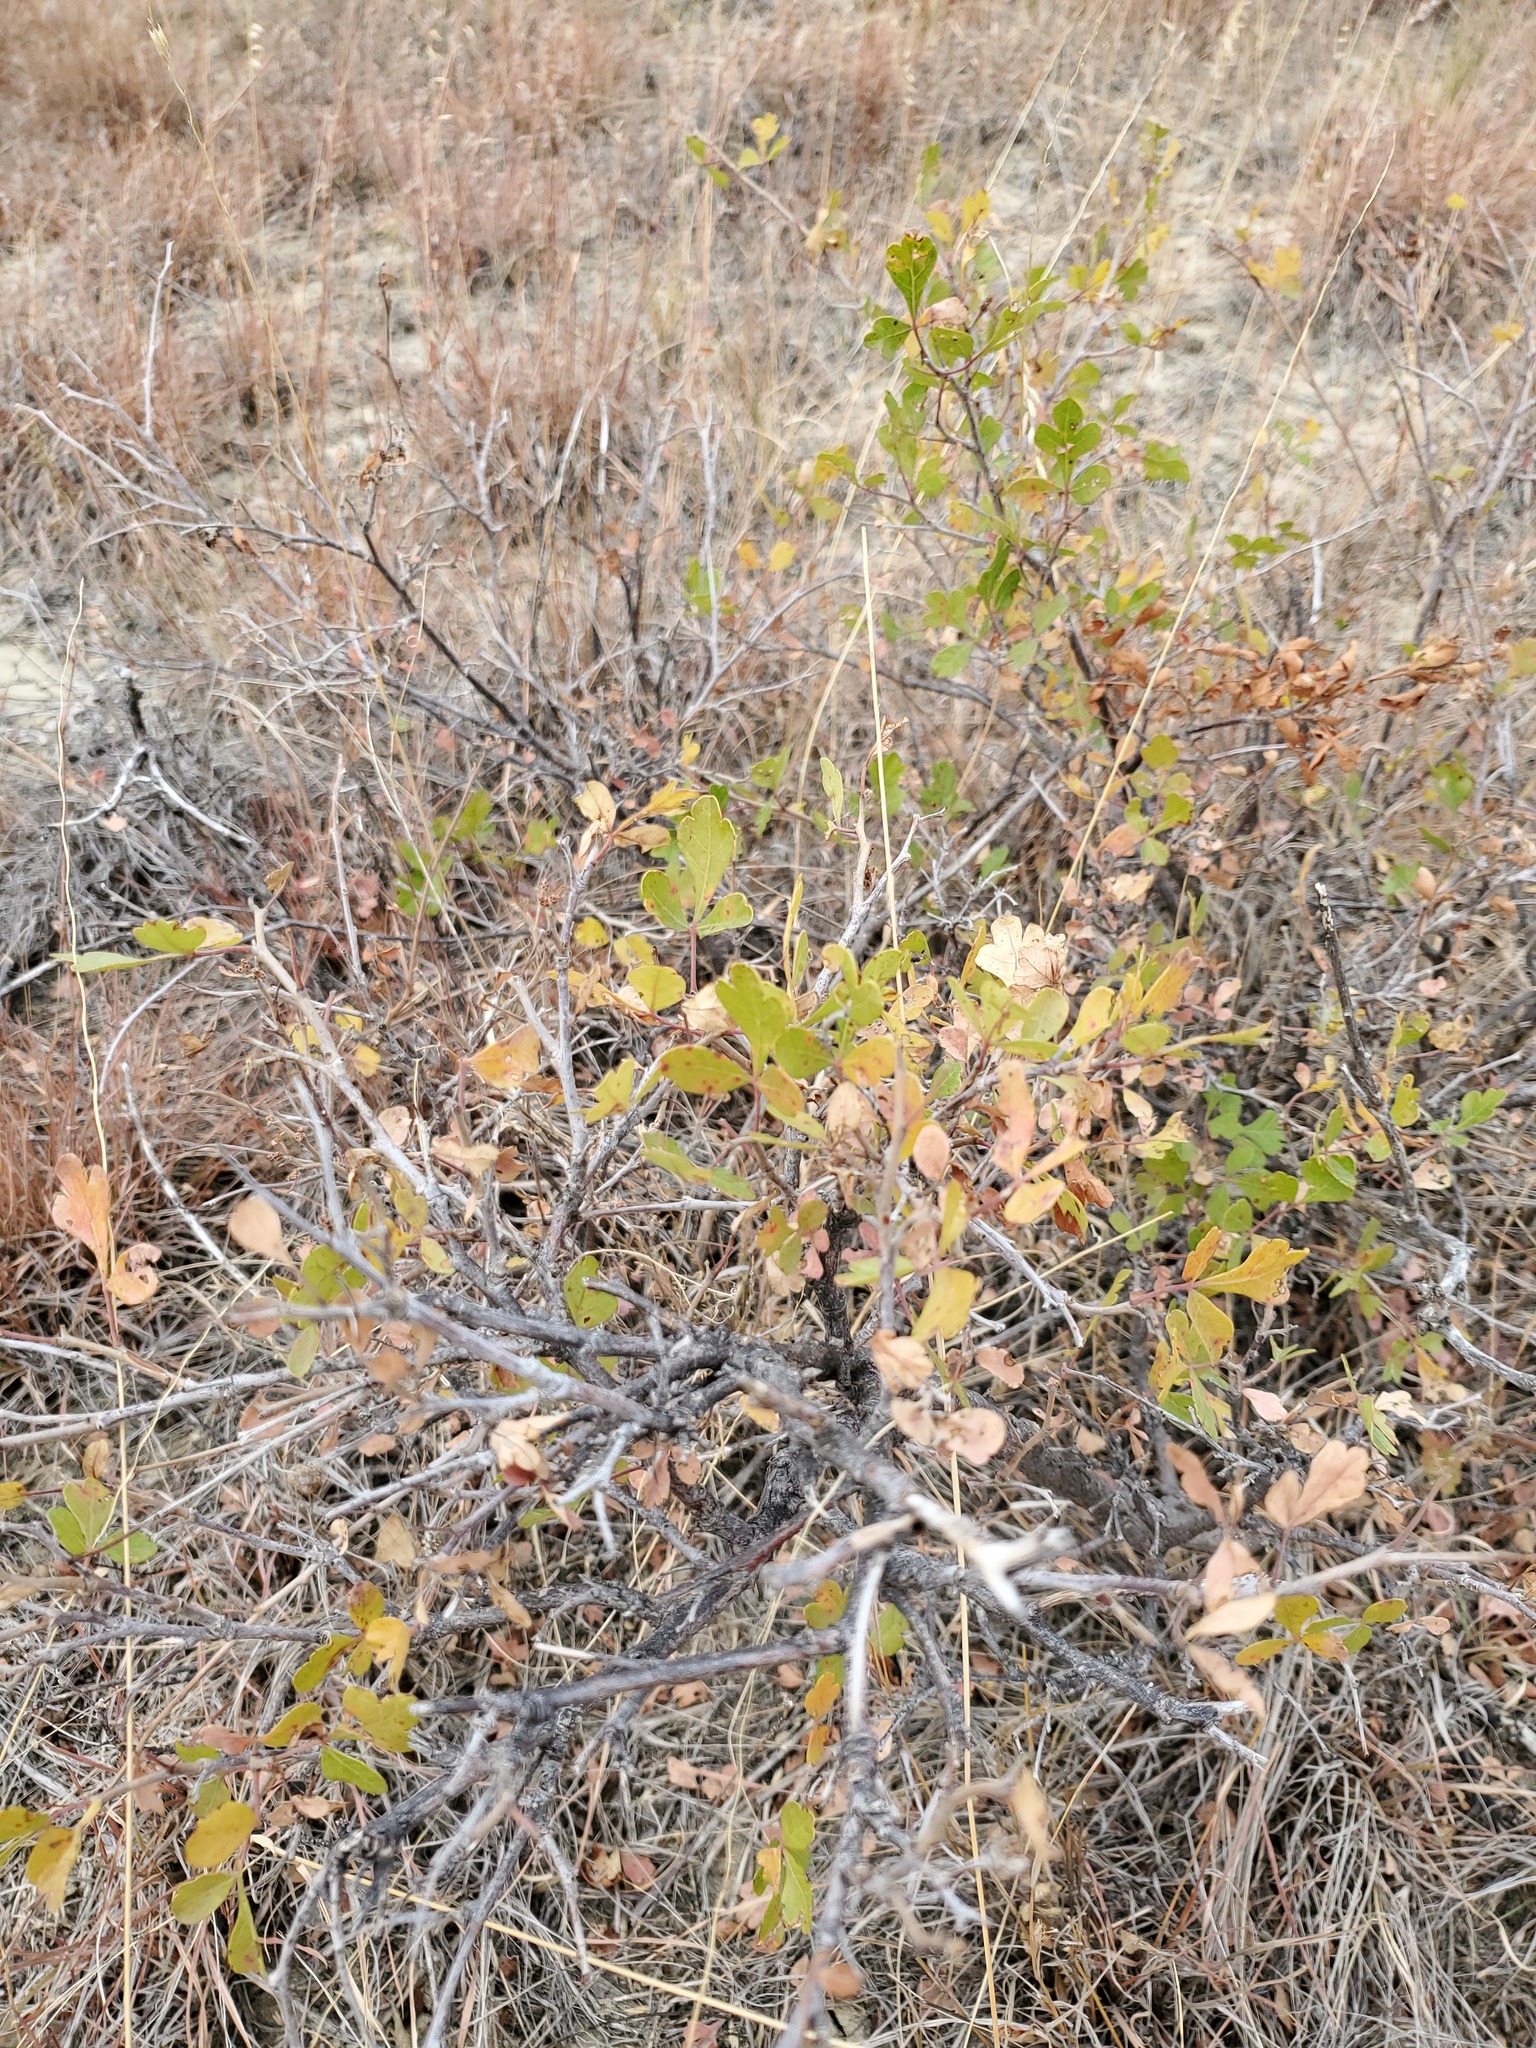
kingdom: Plantae
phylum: Tracheophyta
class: Magnoliopsida
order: Sapindales
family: Anacardiaceae
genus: Rhus
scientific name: Rhus aromatica
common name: Aromatic sumac
